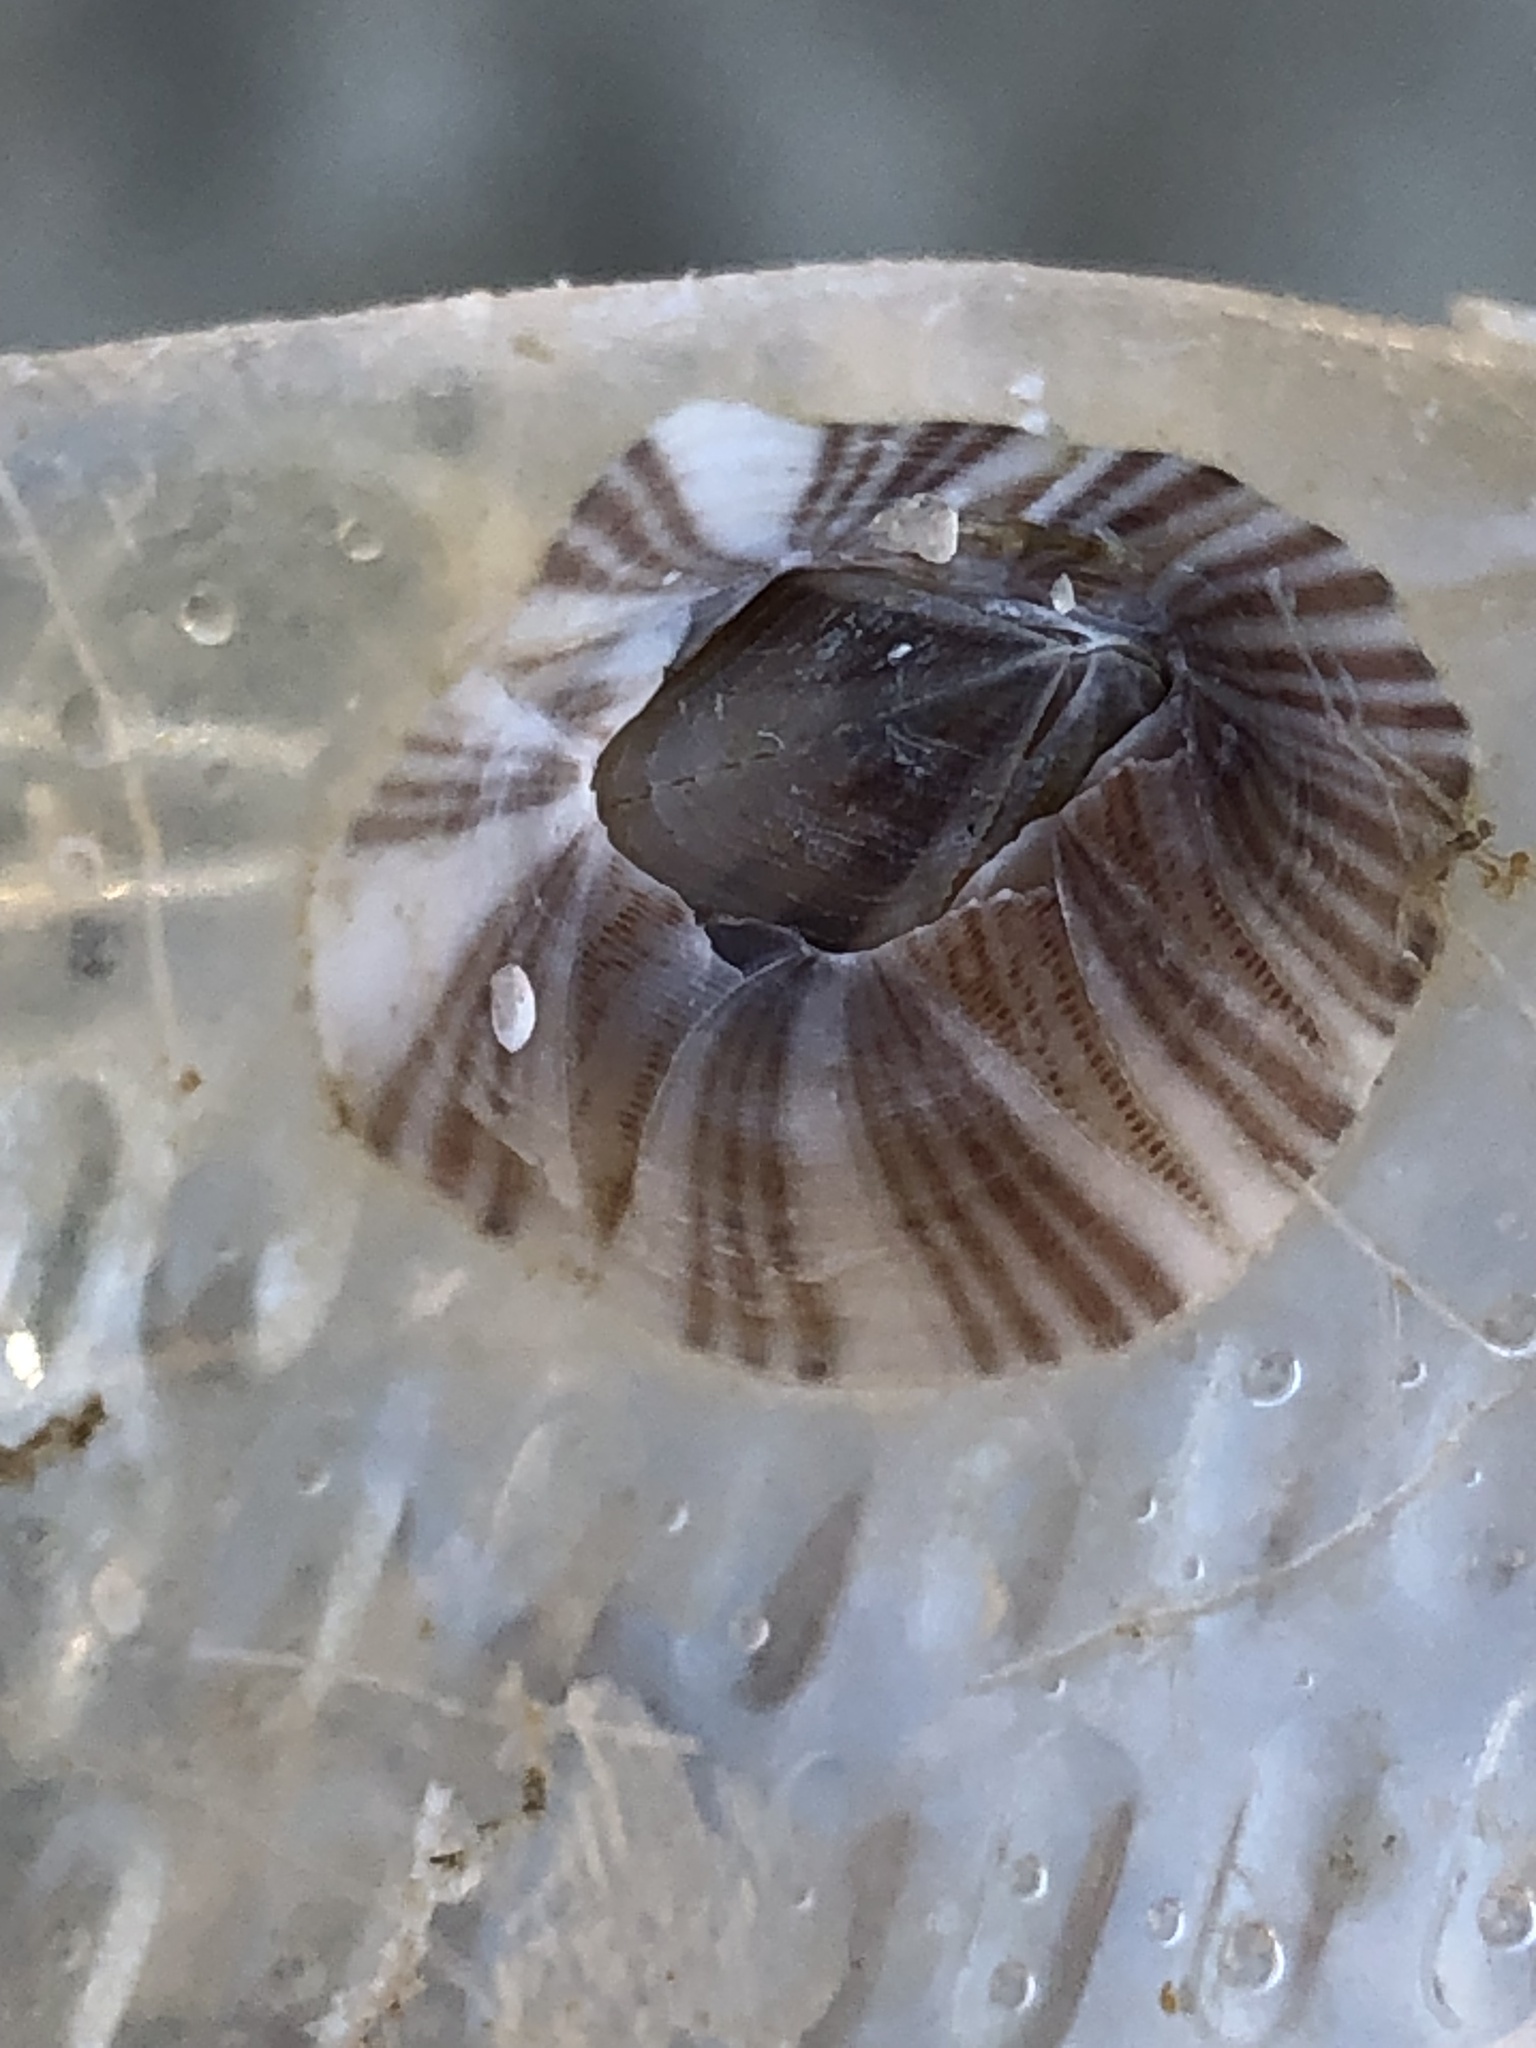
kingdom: Animalia
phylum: Arthropoda
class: Maxillopoda
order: Sessilia
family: Balanidae
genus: Amphibalanus
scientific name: Amphibalanus amphitrite
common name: Striped acorn barnacle
